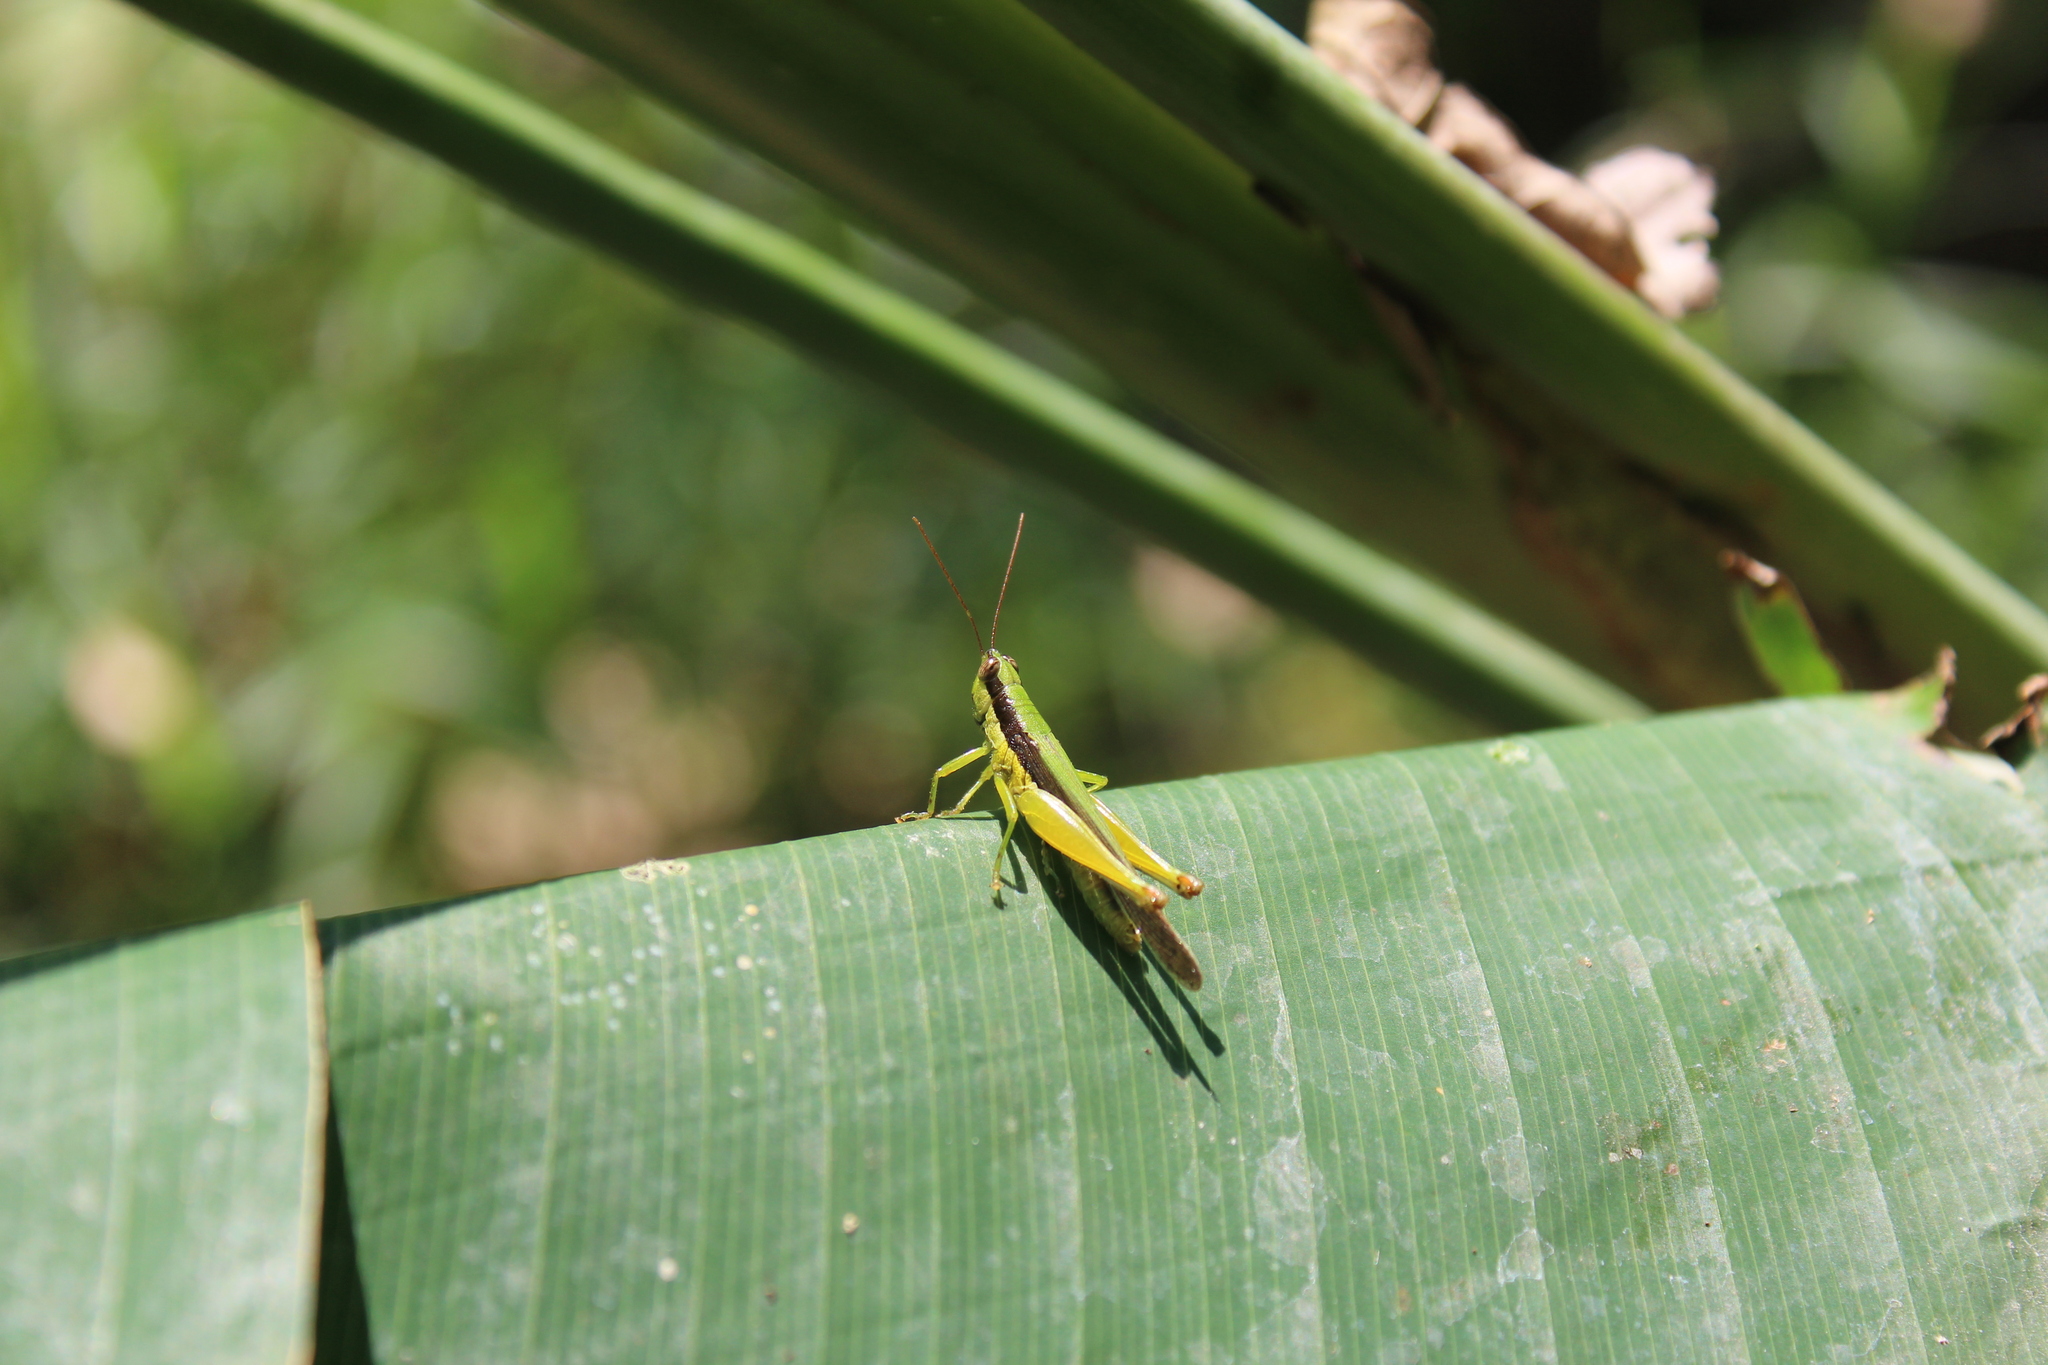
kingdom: Animalia
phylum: Arthropoda
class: Insecta
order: Orthoptera
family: Acrididae
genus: Cornops
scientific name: Cornops aquaticum
